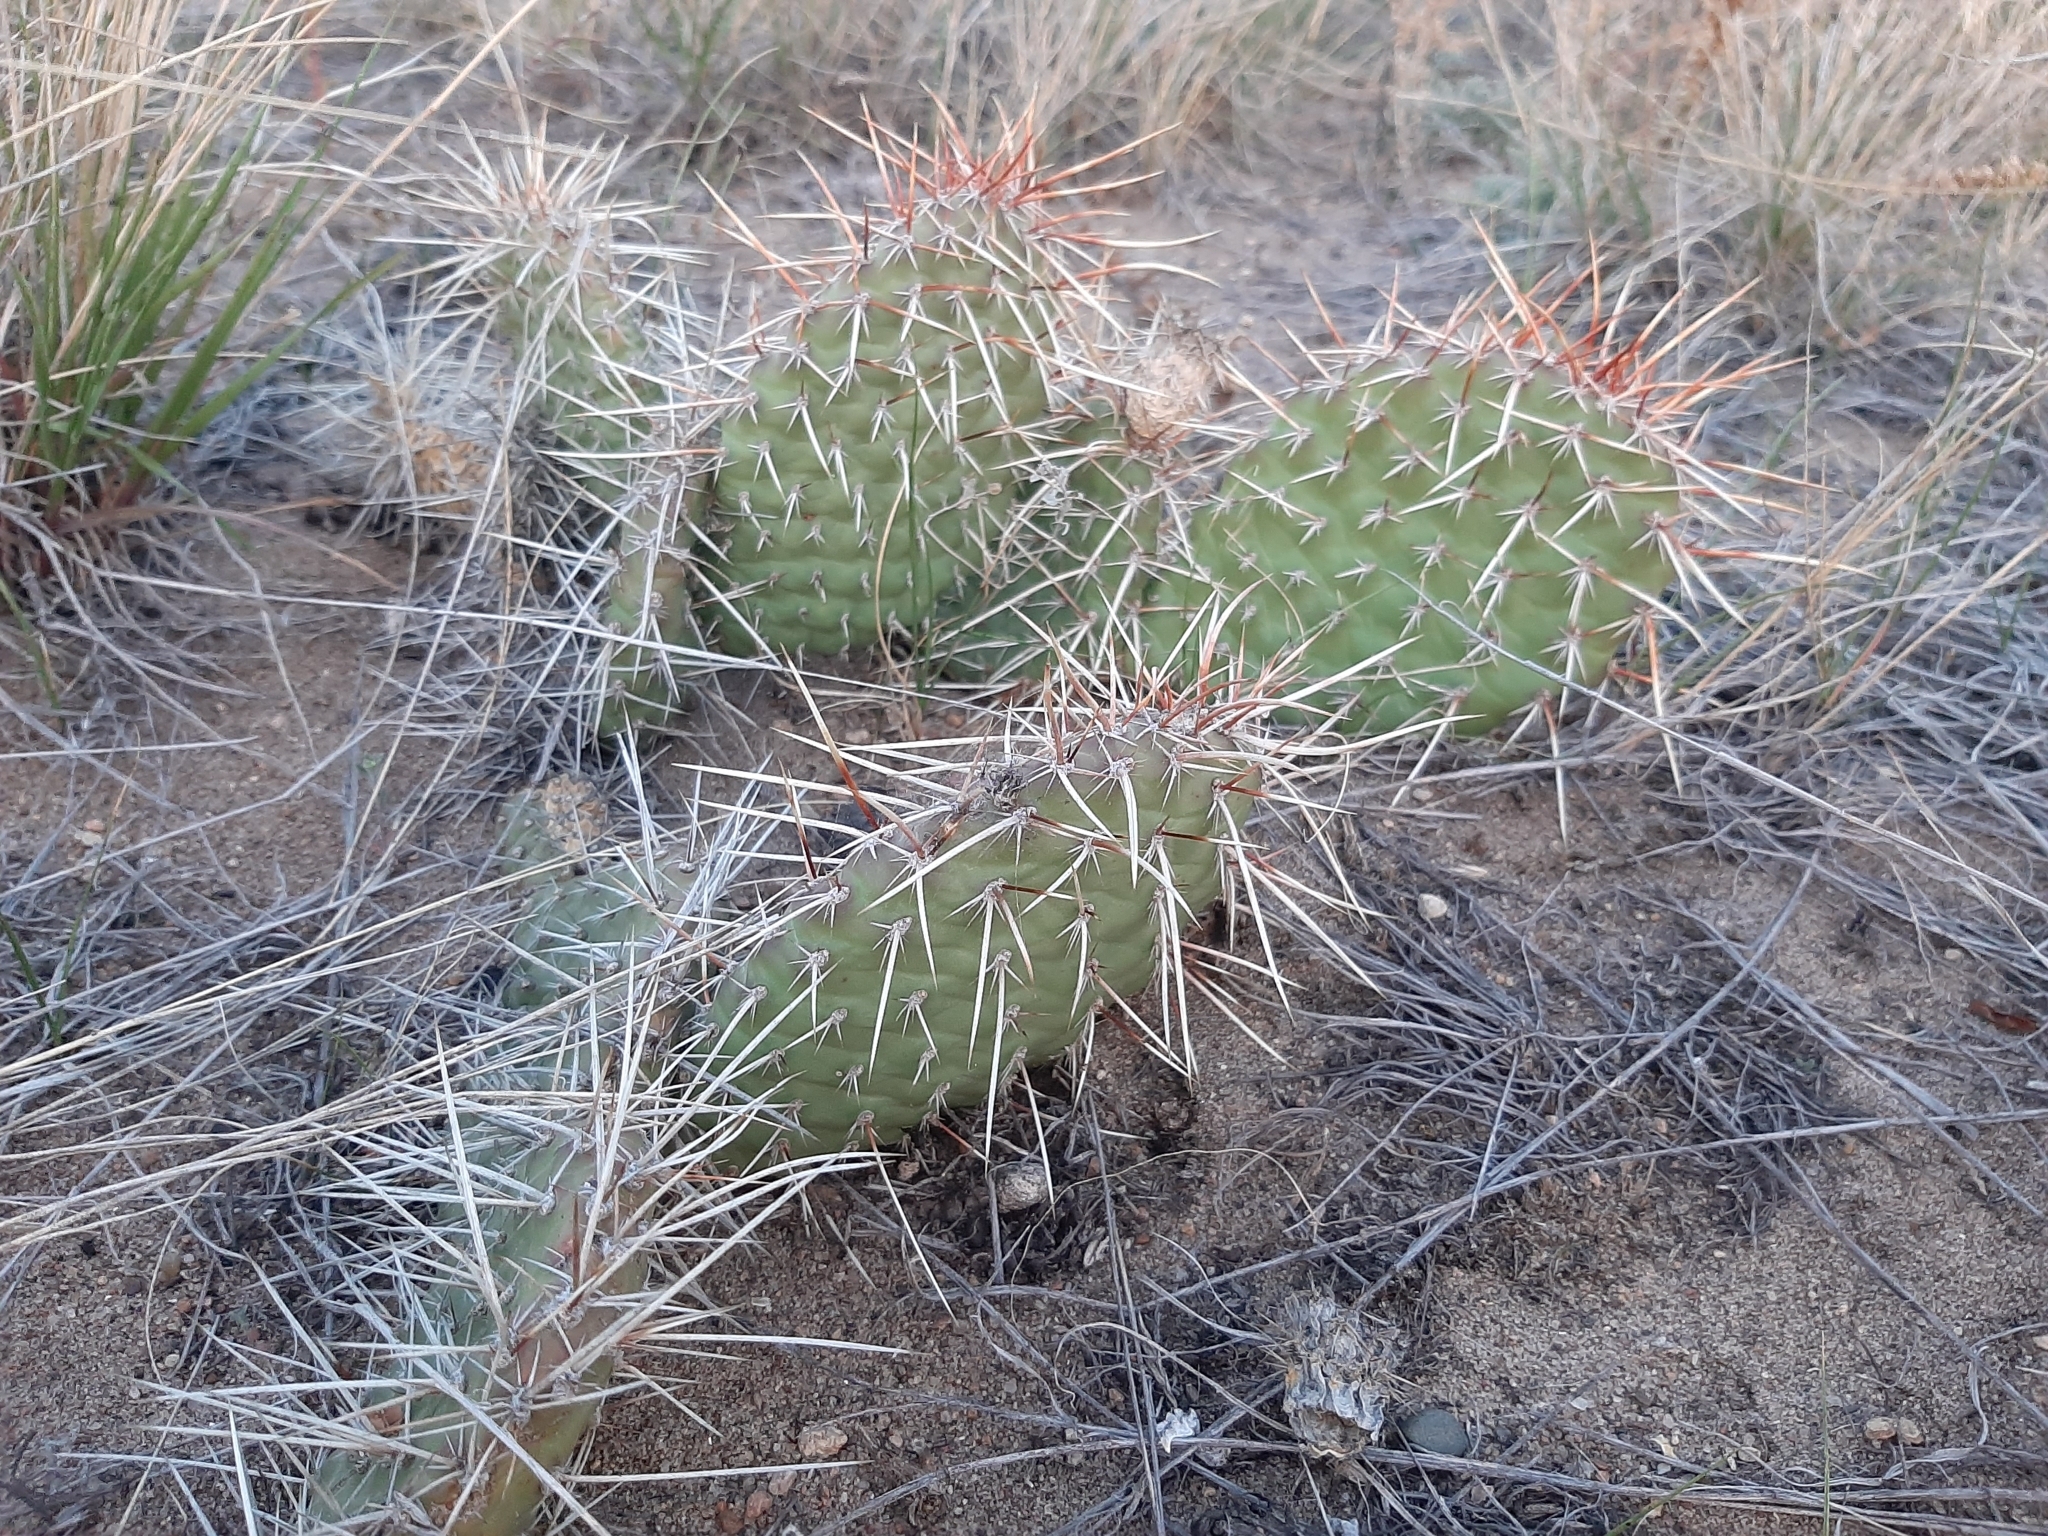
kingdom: Plantae
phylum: Tracheophyta
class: Magnoliopsida
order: Caryophyllales
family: Cactaceae
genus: Opuntia
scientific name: Opuntia polyacantha
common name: Plains prickly-pear
